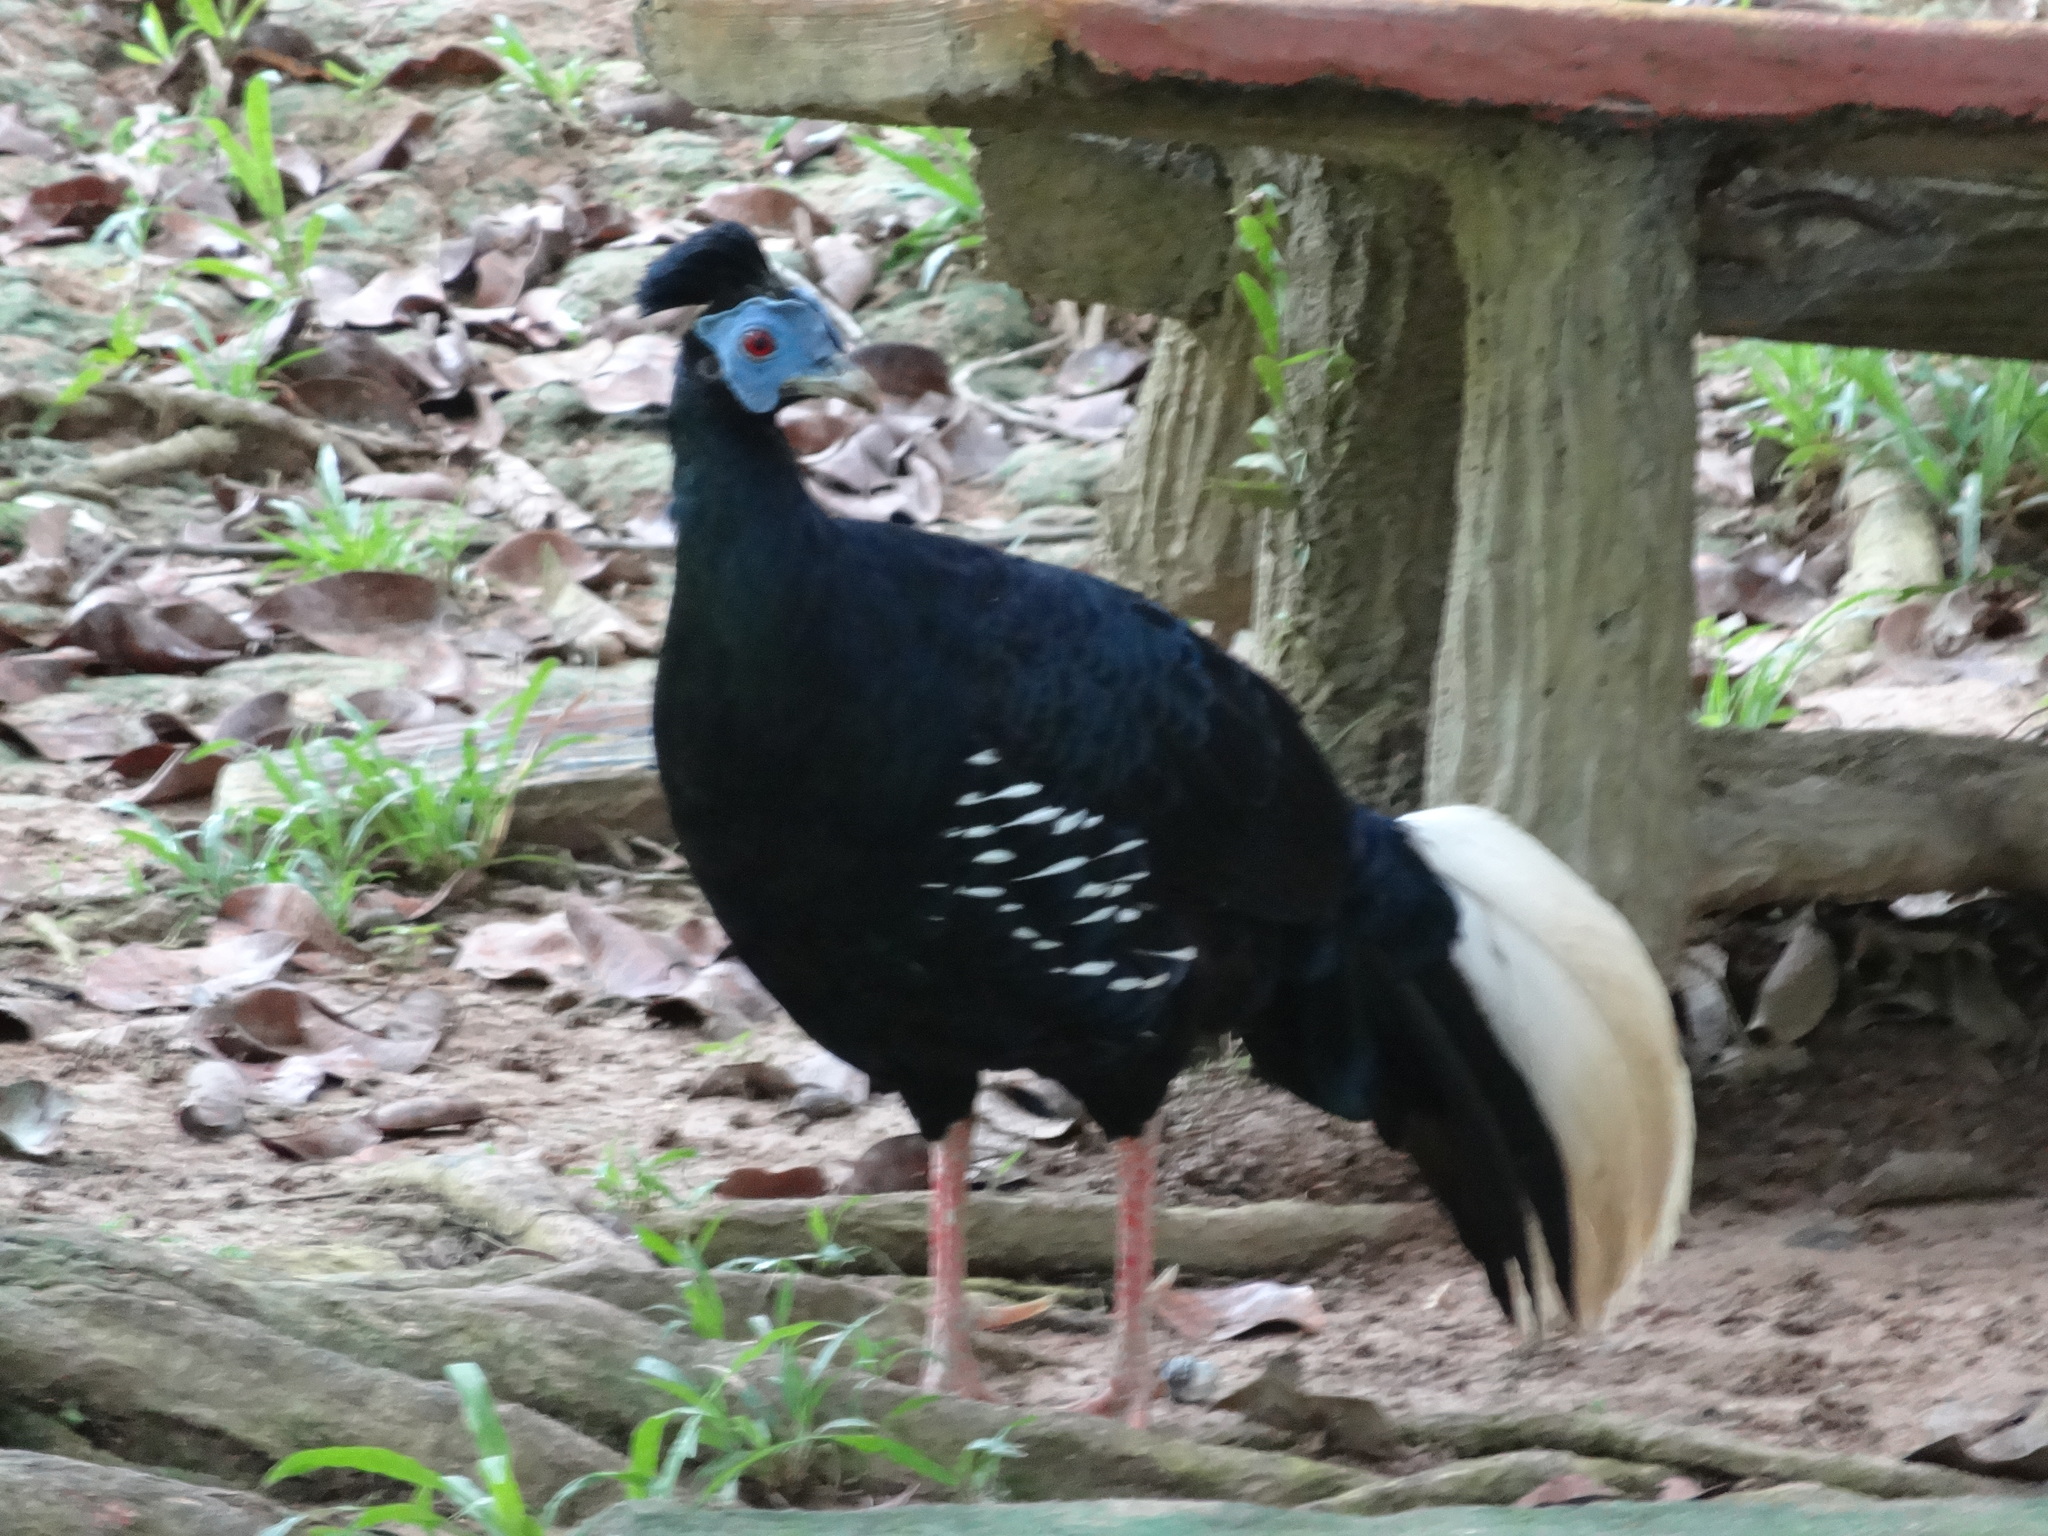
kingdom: Animalia
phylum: Chordata
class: Aves
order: Galliformes
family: Phasianidae
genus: Lophura
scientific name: Lophura ignita
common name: Crested fireback
